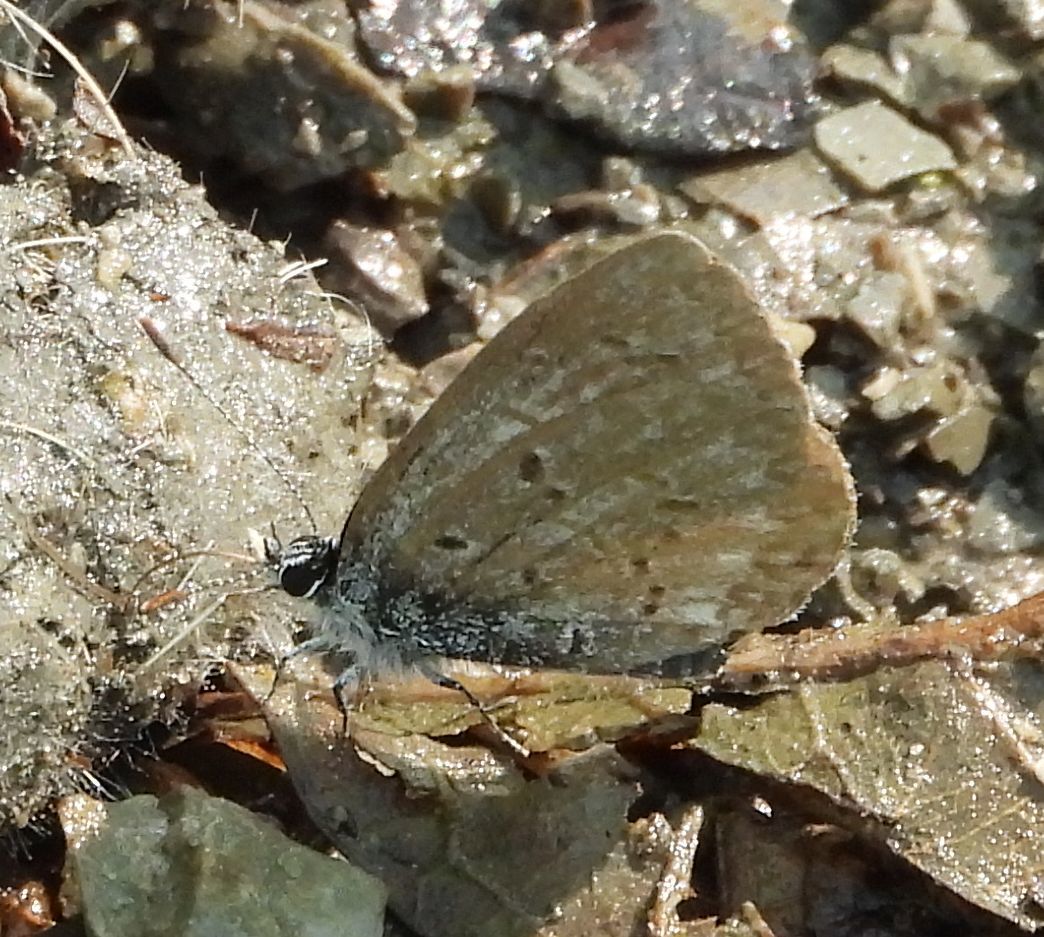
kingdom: Animalia
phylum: Arthropoda
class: Insecta
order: Lepidoptera
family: Lycaenidae
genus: Celastrina
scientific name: Celastrina lucia
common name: Lucia azure
